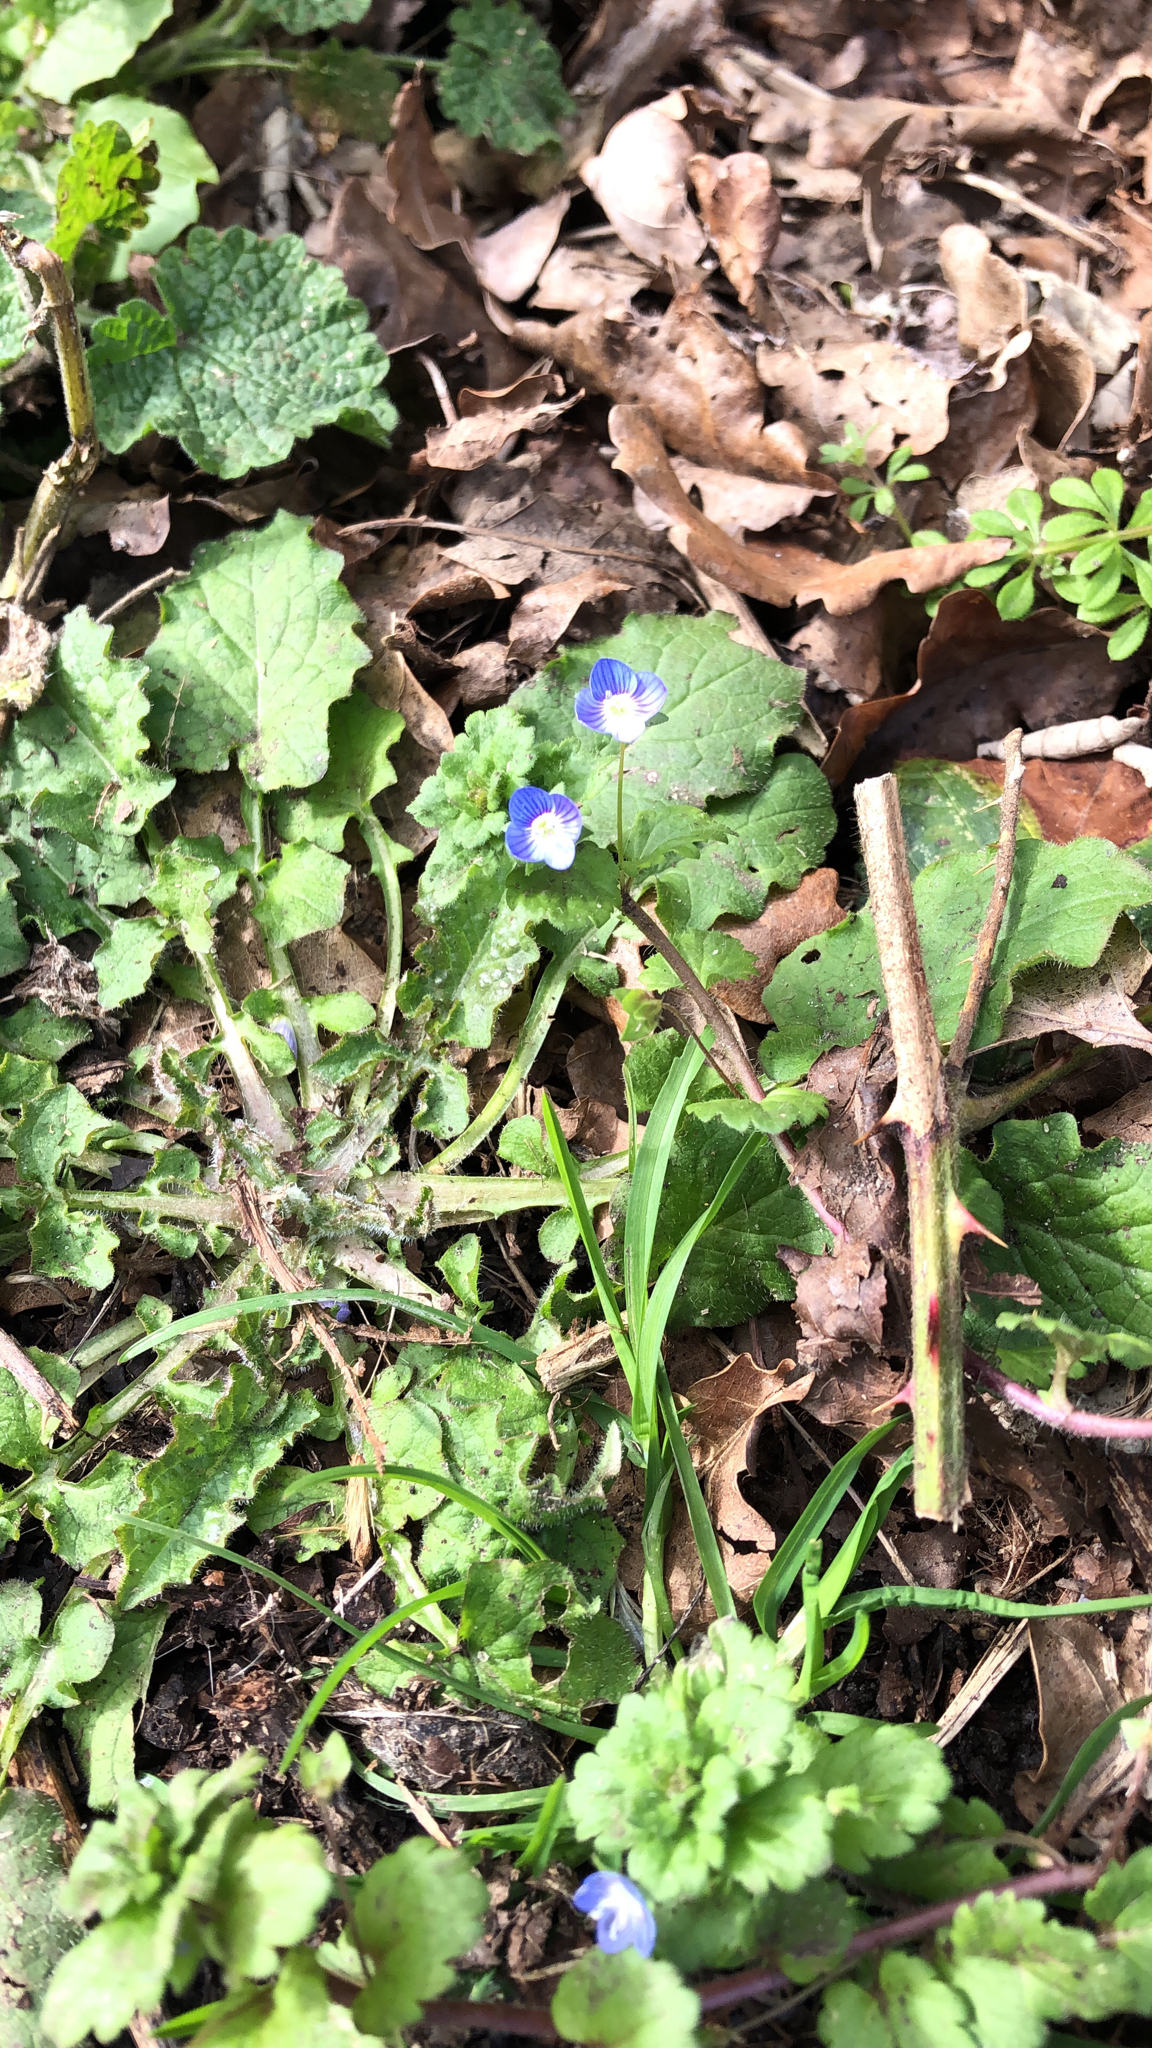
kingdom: Plantae
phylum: Tracheophyta
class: Magnoliopsida
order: Lamiales
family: Plantaginaceae
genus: Veronica
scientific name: Veronica persica
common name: Common field-speedwell
